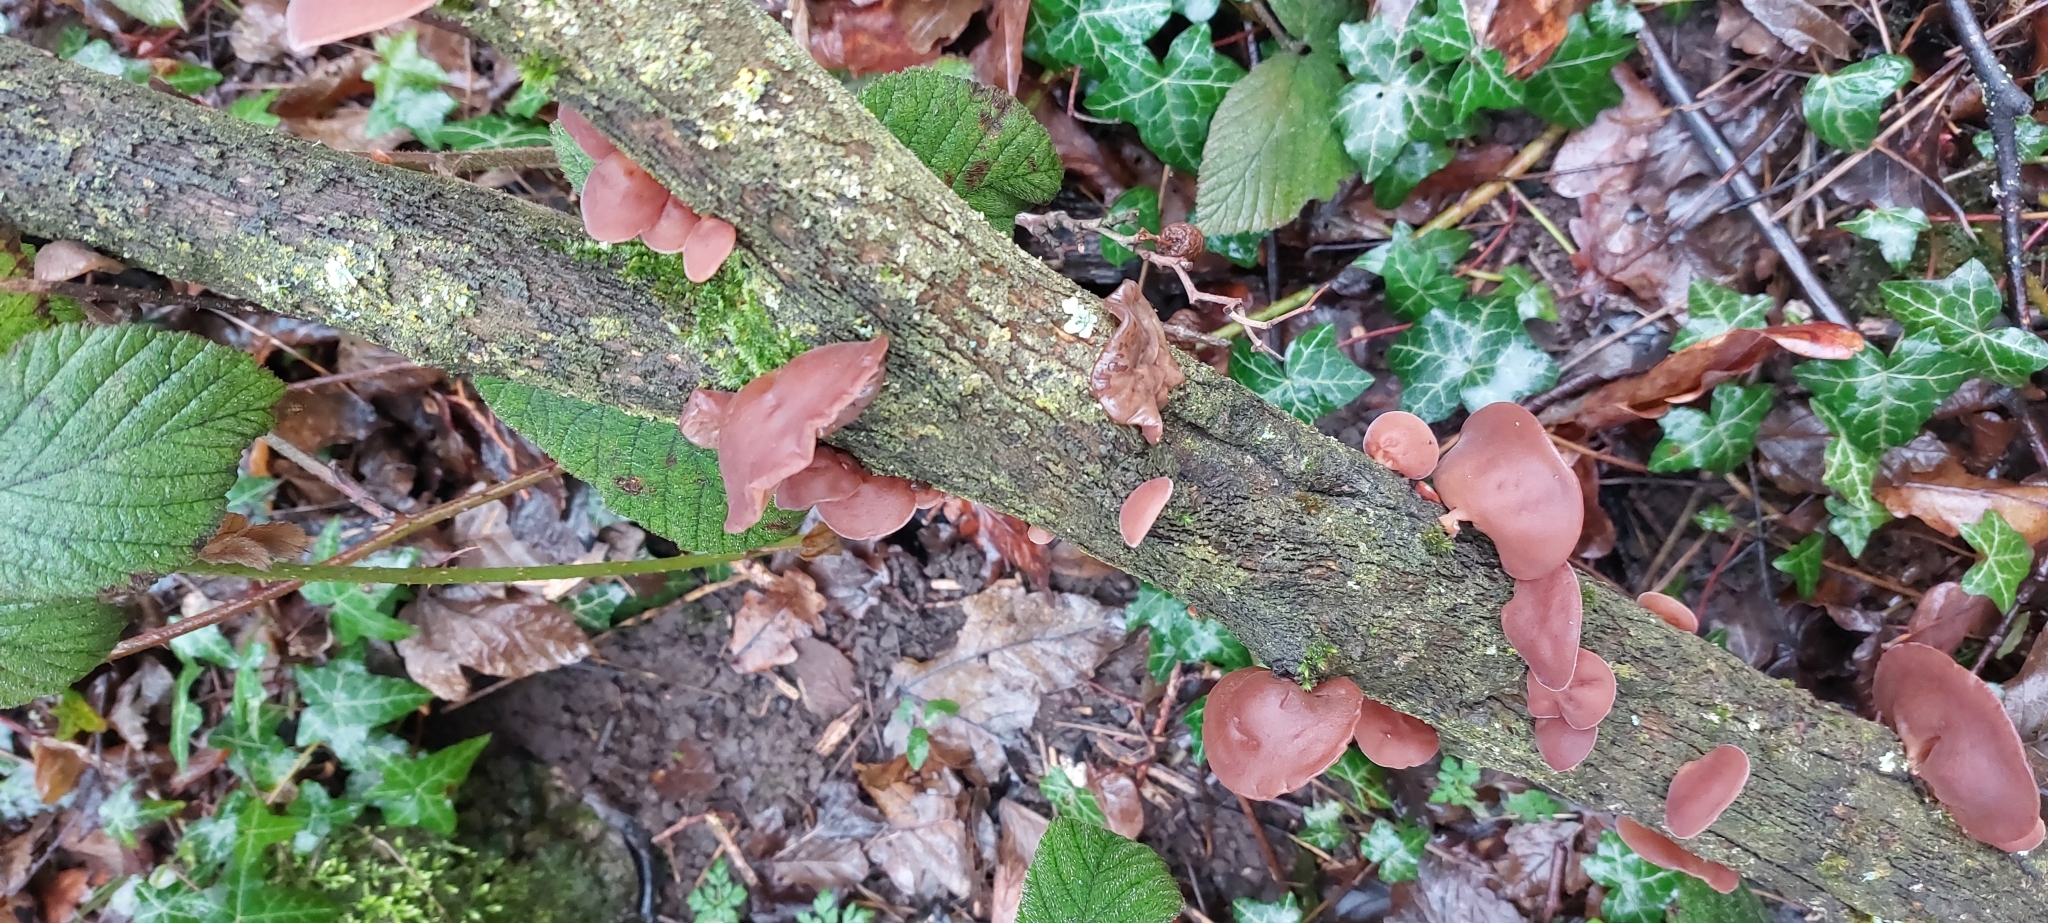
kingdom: Fungi
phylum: Basidiomycota
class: Agaricomycetes
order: Auriculariales
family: Auriculariaceae
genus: Auricularia
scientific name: Auricularia auricula-judae
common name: Jelly ear
